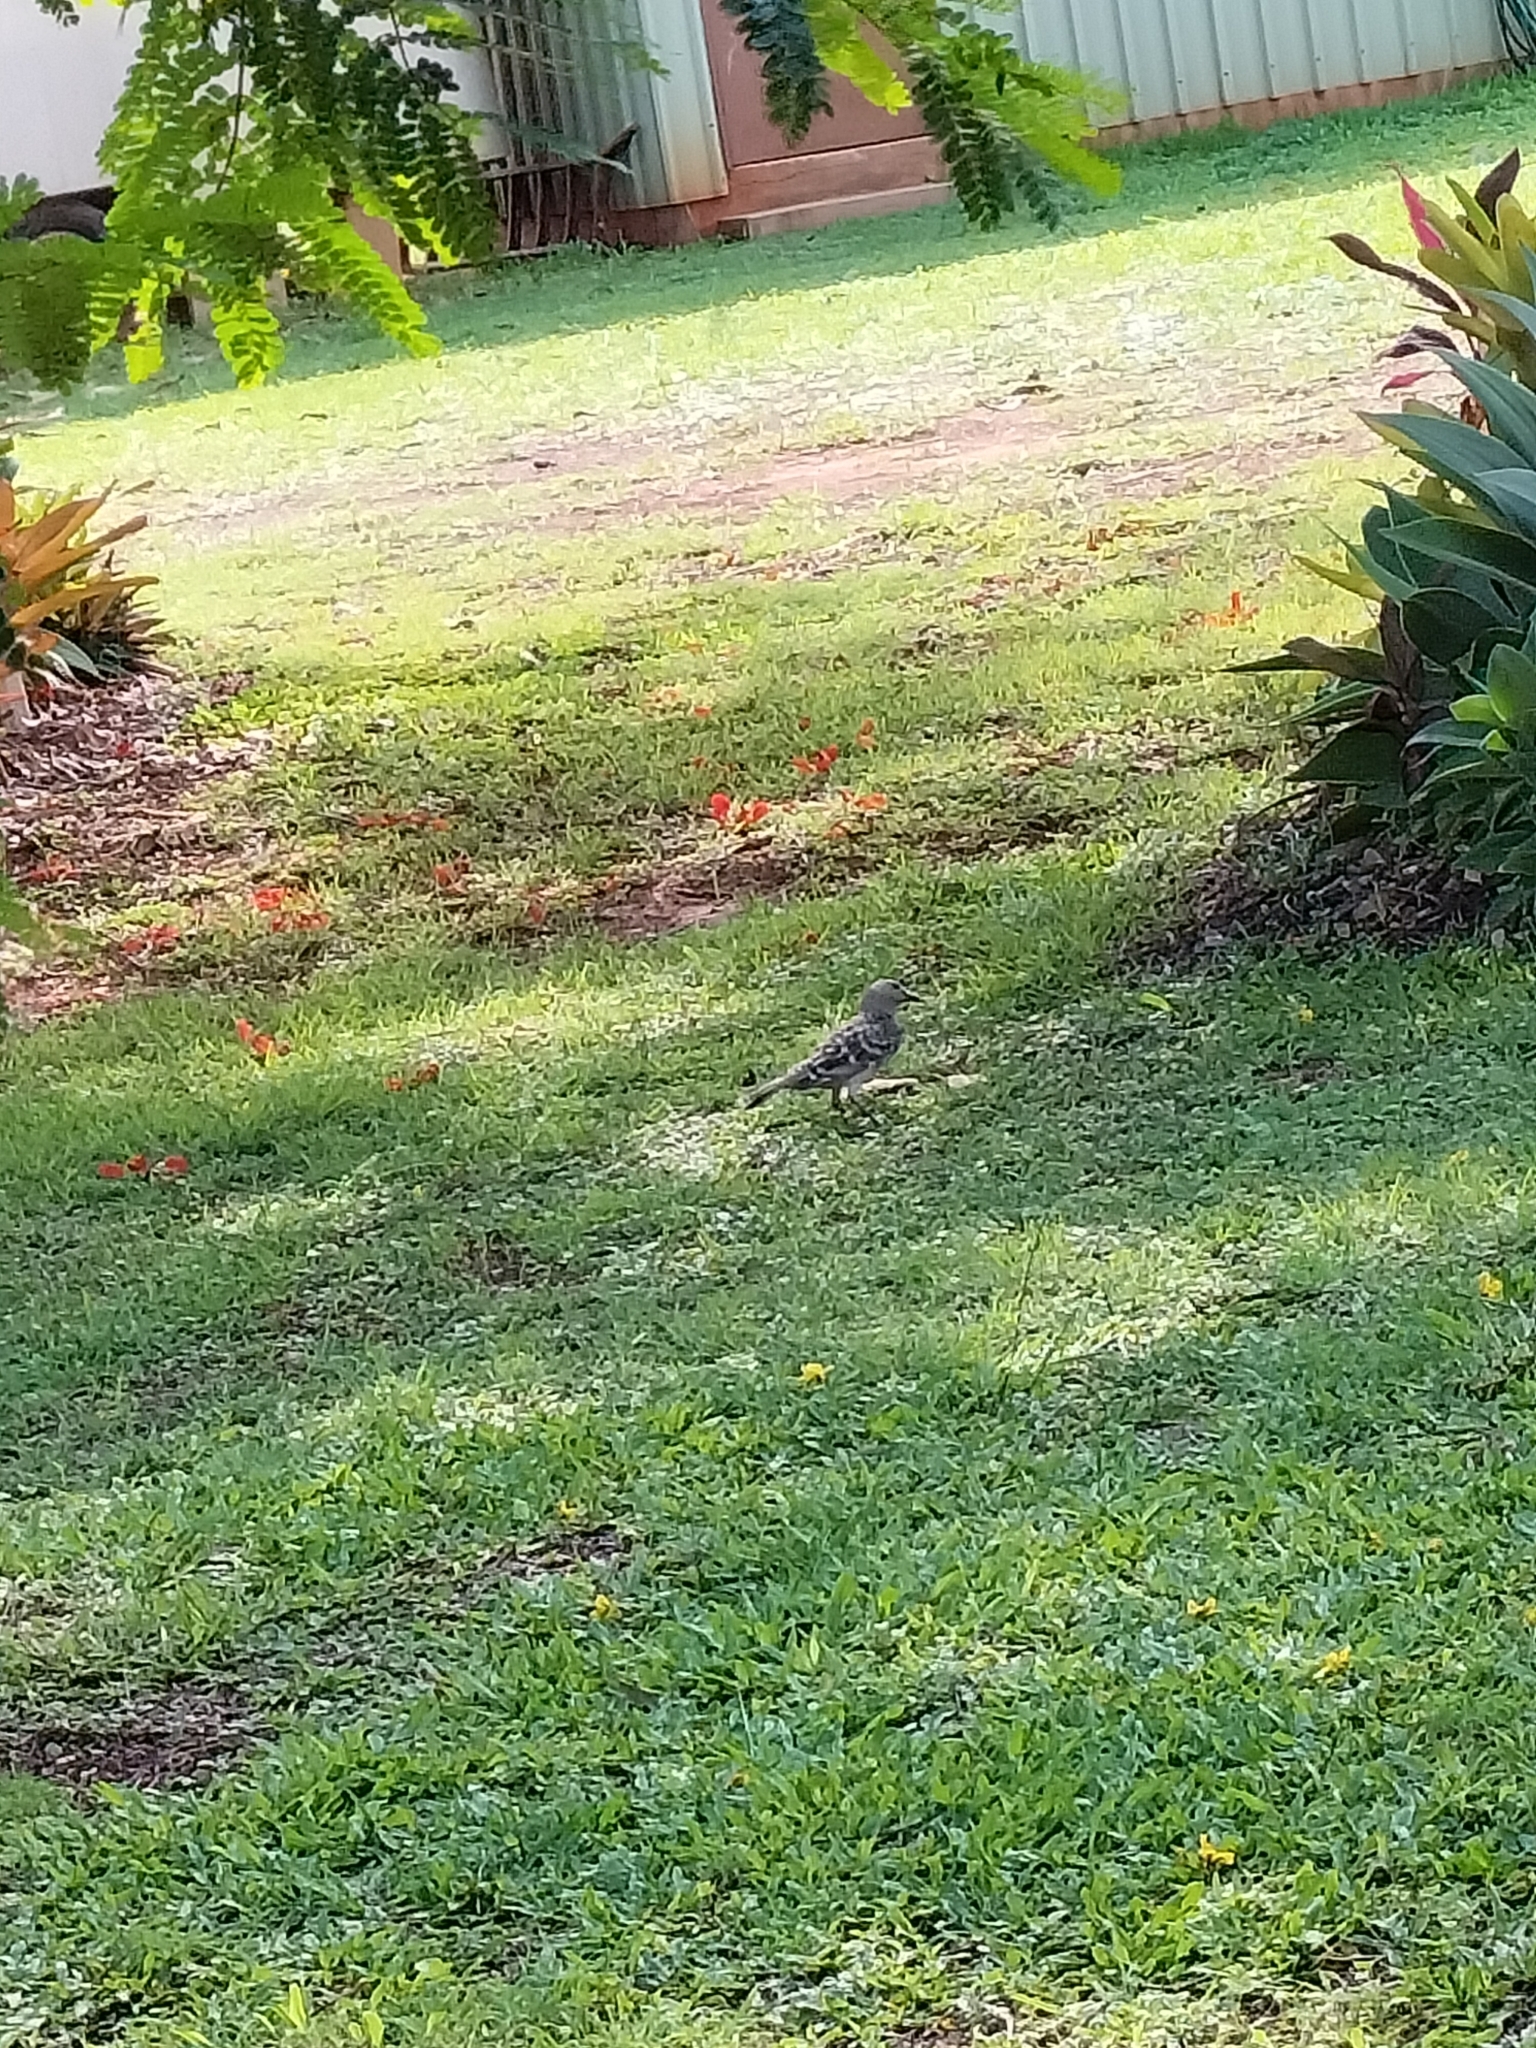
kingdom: Animalia
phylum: Chordata
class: Aves
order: Passeriformes
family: Ptilonorhynchidae
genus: Chlamydera
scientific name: Chlamydera nuchalis
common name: Great bowerbird
